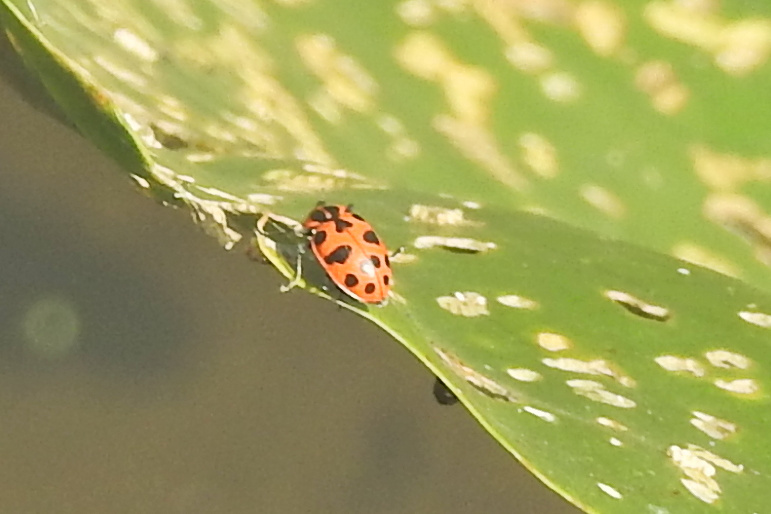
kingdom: Animalia
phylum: Arthropoda
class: Insecta
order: Coleoptera
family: Coccinellidae
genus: Coleomegilla
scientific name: Coleomegilla maculata
